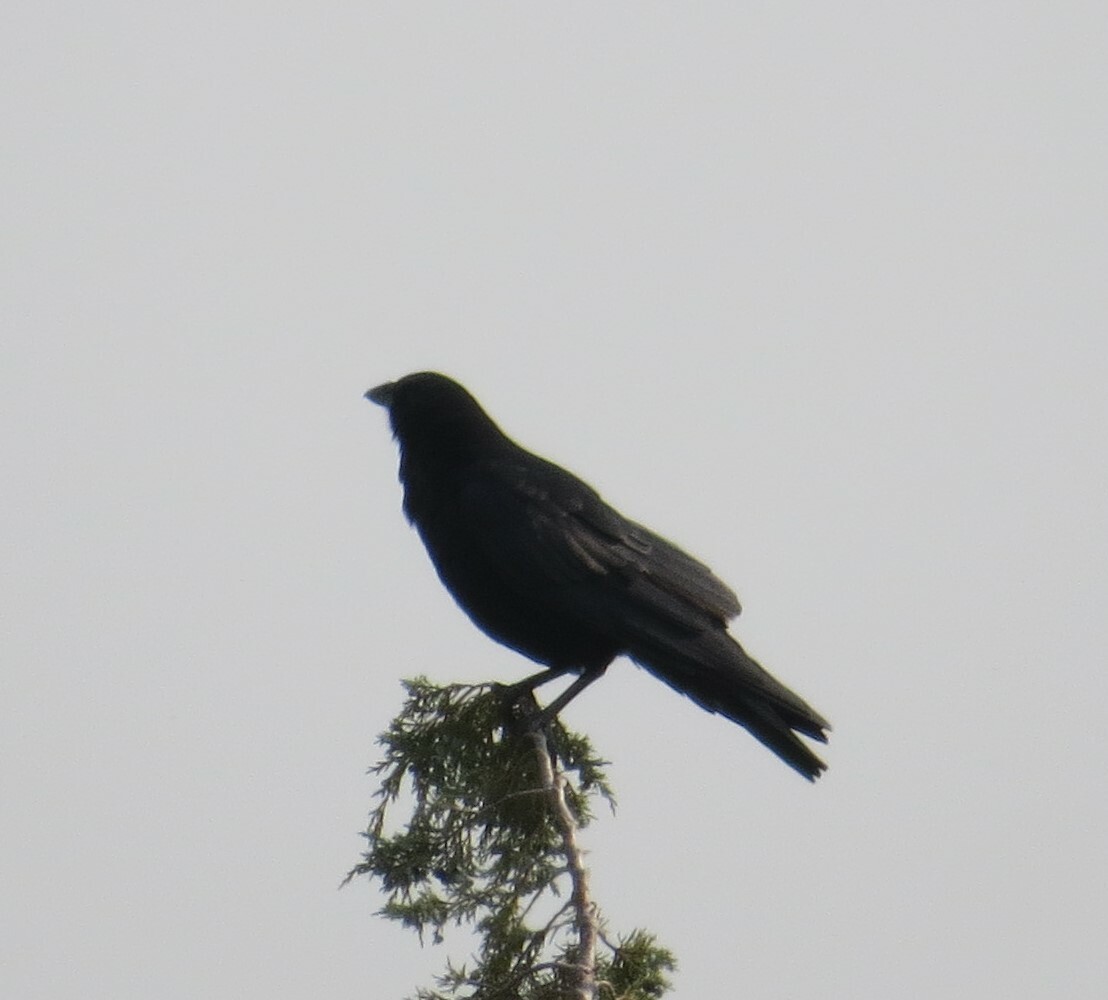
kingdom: Animalia
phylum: Chordata
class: Aves
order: Passeriformes
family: Corvidae
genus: Corvus
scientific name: Corvus brachyrhynchos
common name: American crow
